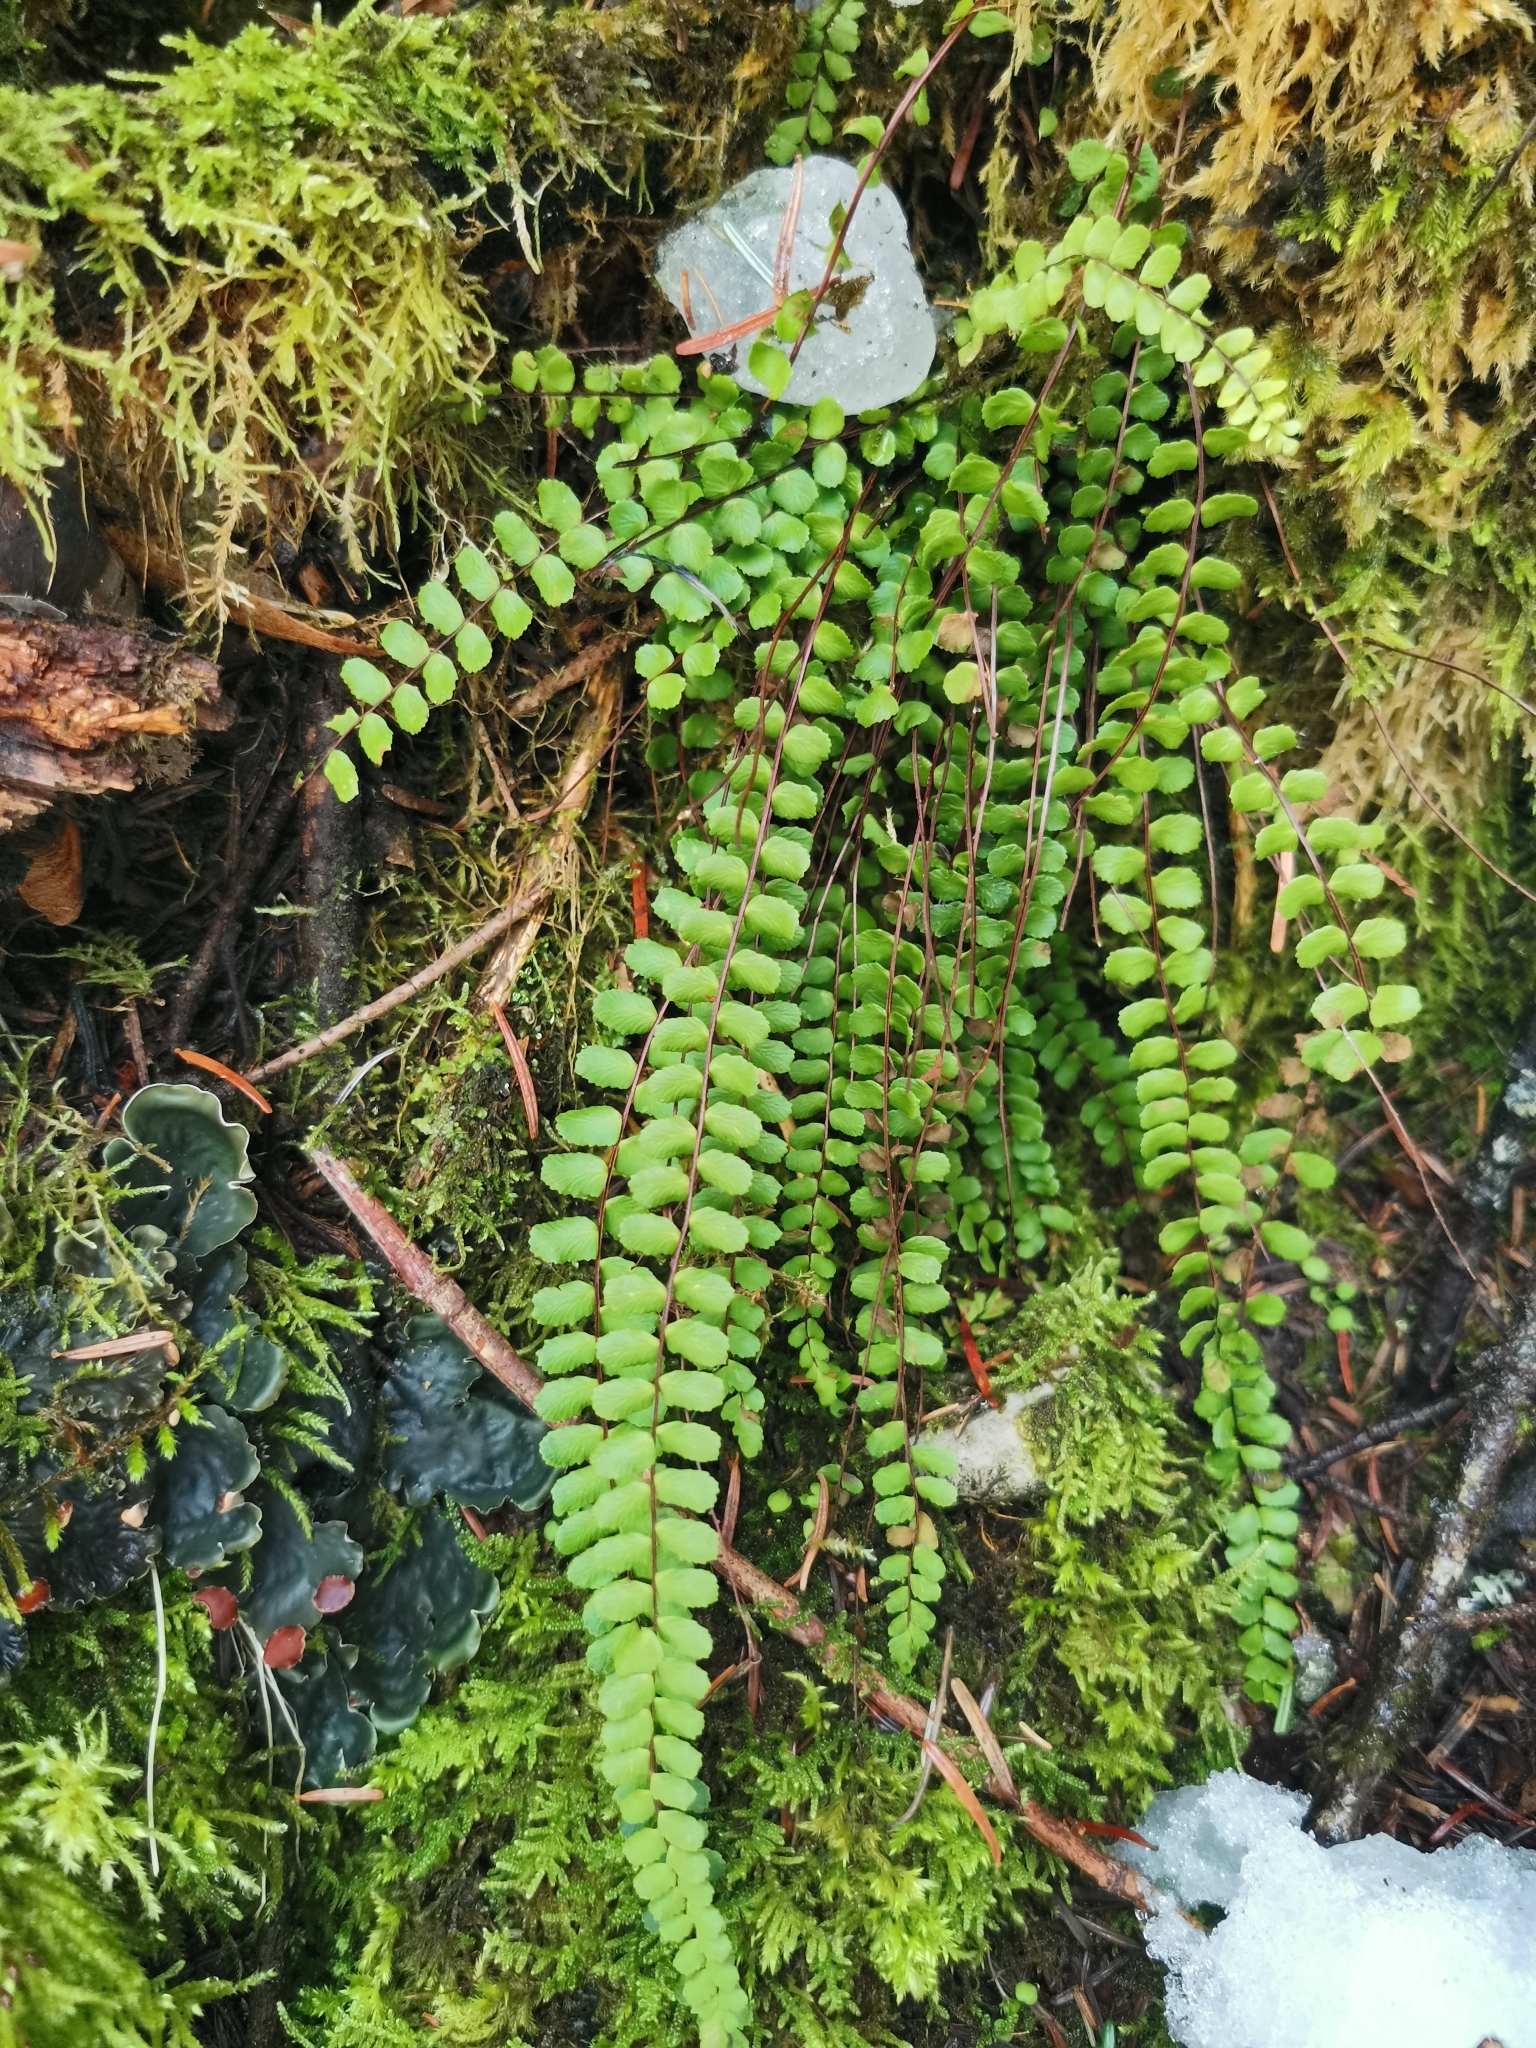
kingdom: Plantae
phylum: Tracheophyta
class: Polypodiopsida
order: Polypodiales
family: Aspleniaceae
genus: Asplenium
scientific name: Asplenium trichomanes
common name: Maidenhair spleenwort
